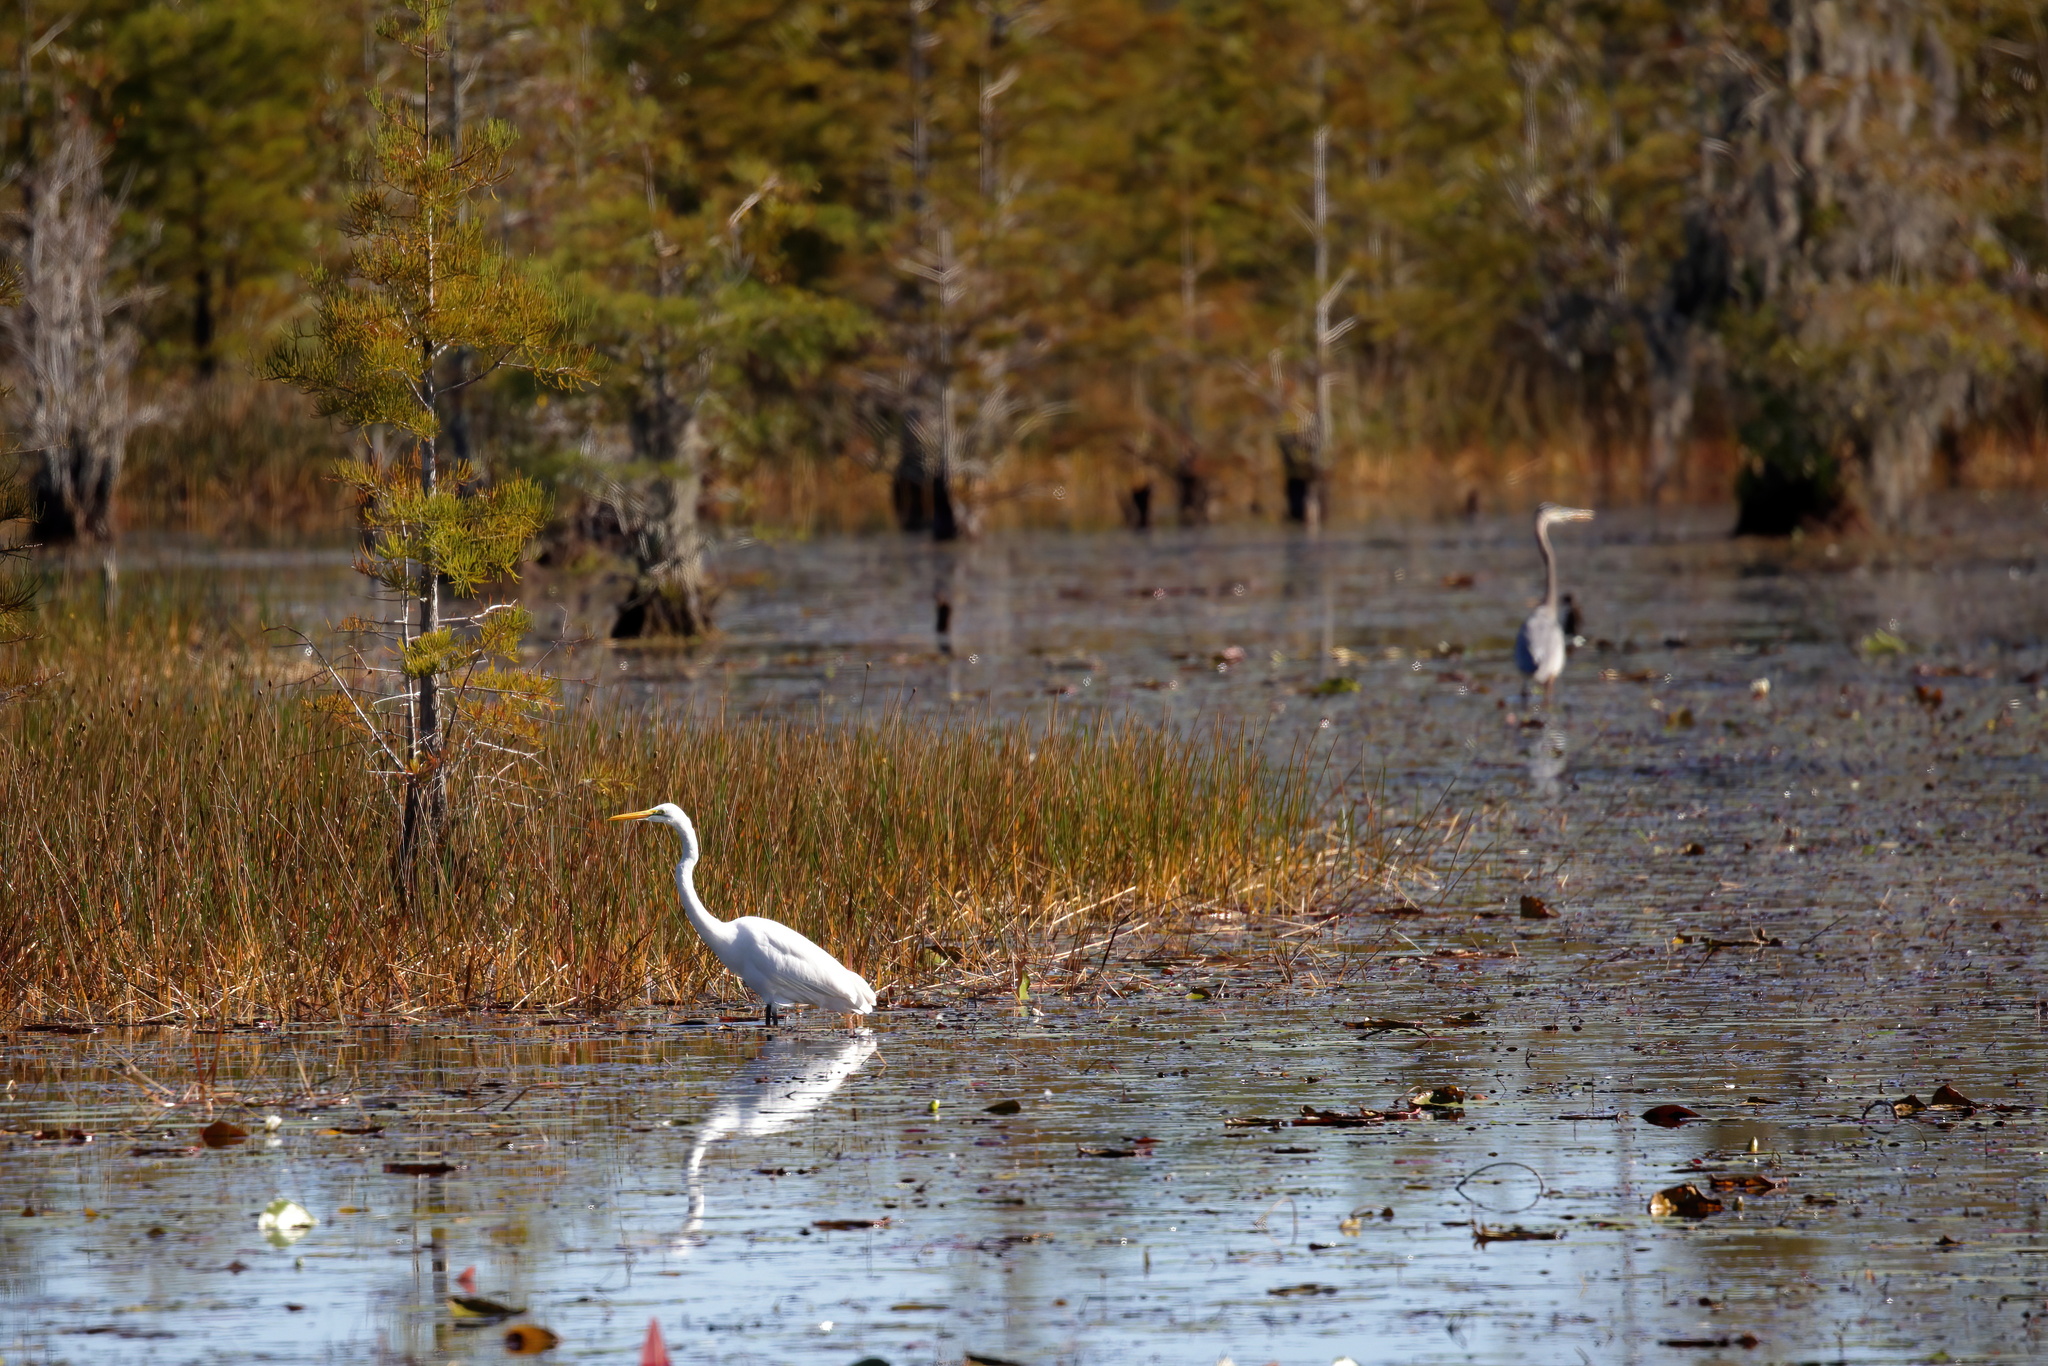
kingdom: Animalia
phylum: Chordata
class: Aves
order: Pelecaniformes
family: Ardeidae
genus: Ardea
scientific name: Ardea alba
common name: Great egret
